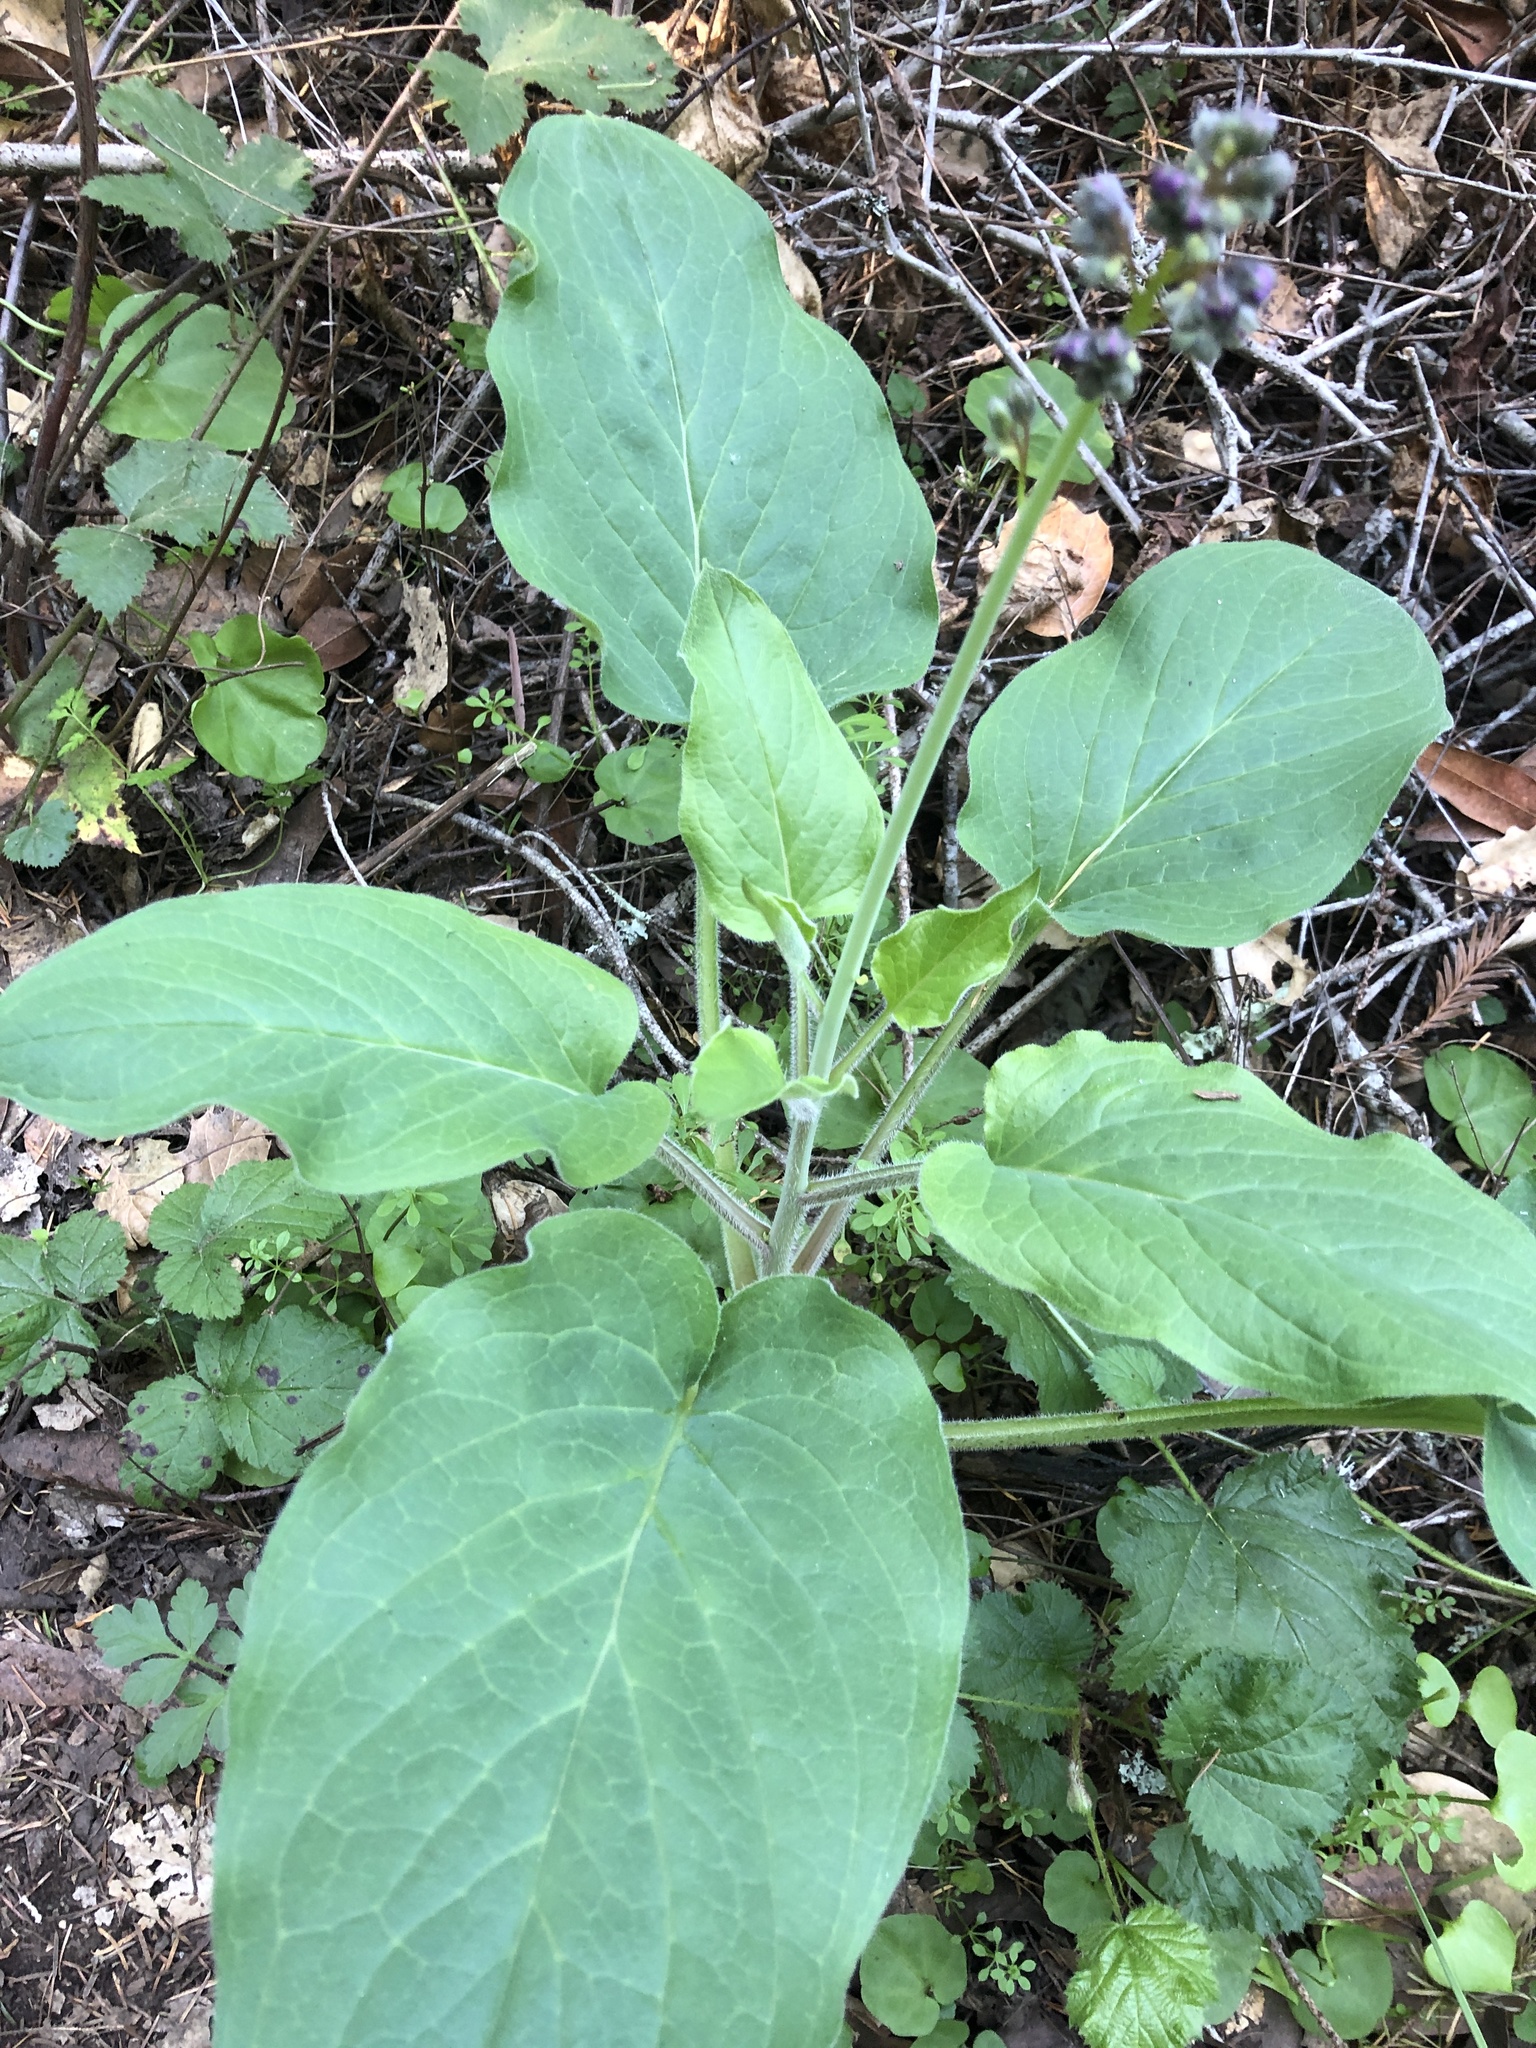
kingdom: Plantae
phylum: Tracheophyta
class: Magnoliopsida
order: Boraginales
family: Boraginaceae
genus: Adelinia
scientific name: Adelinia grande
